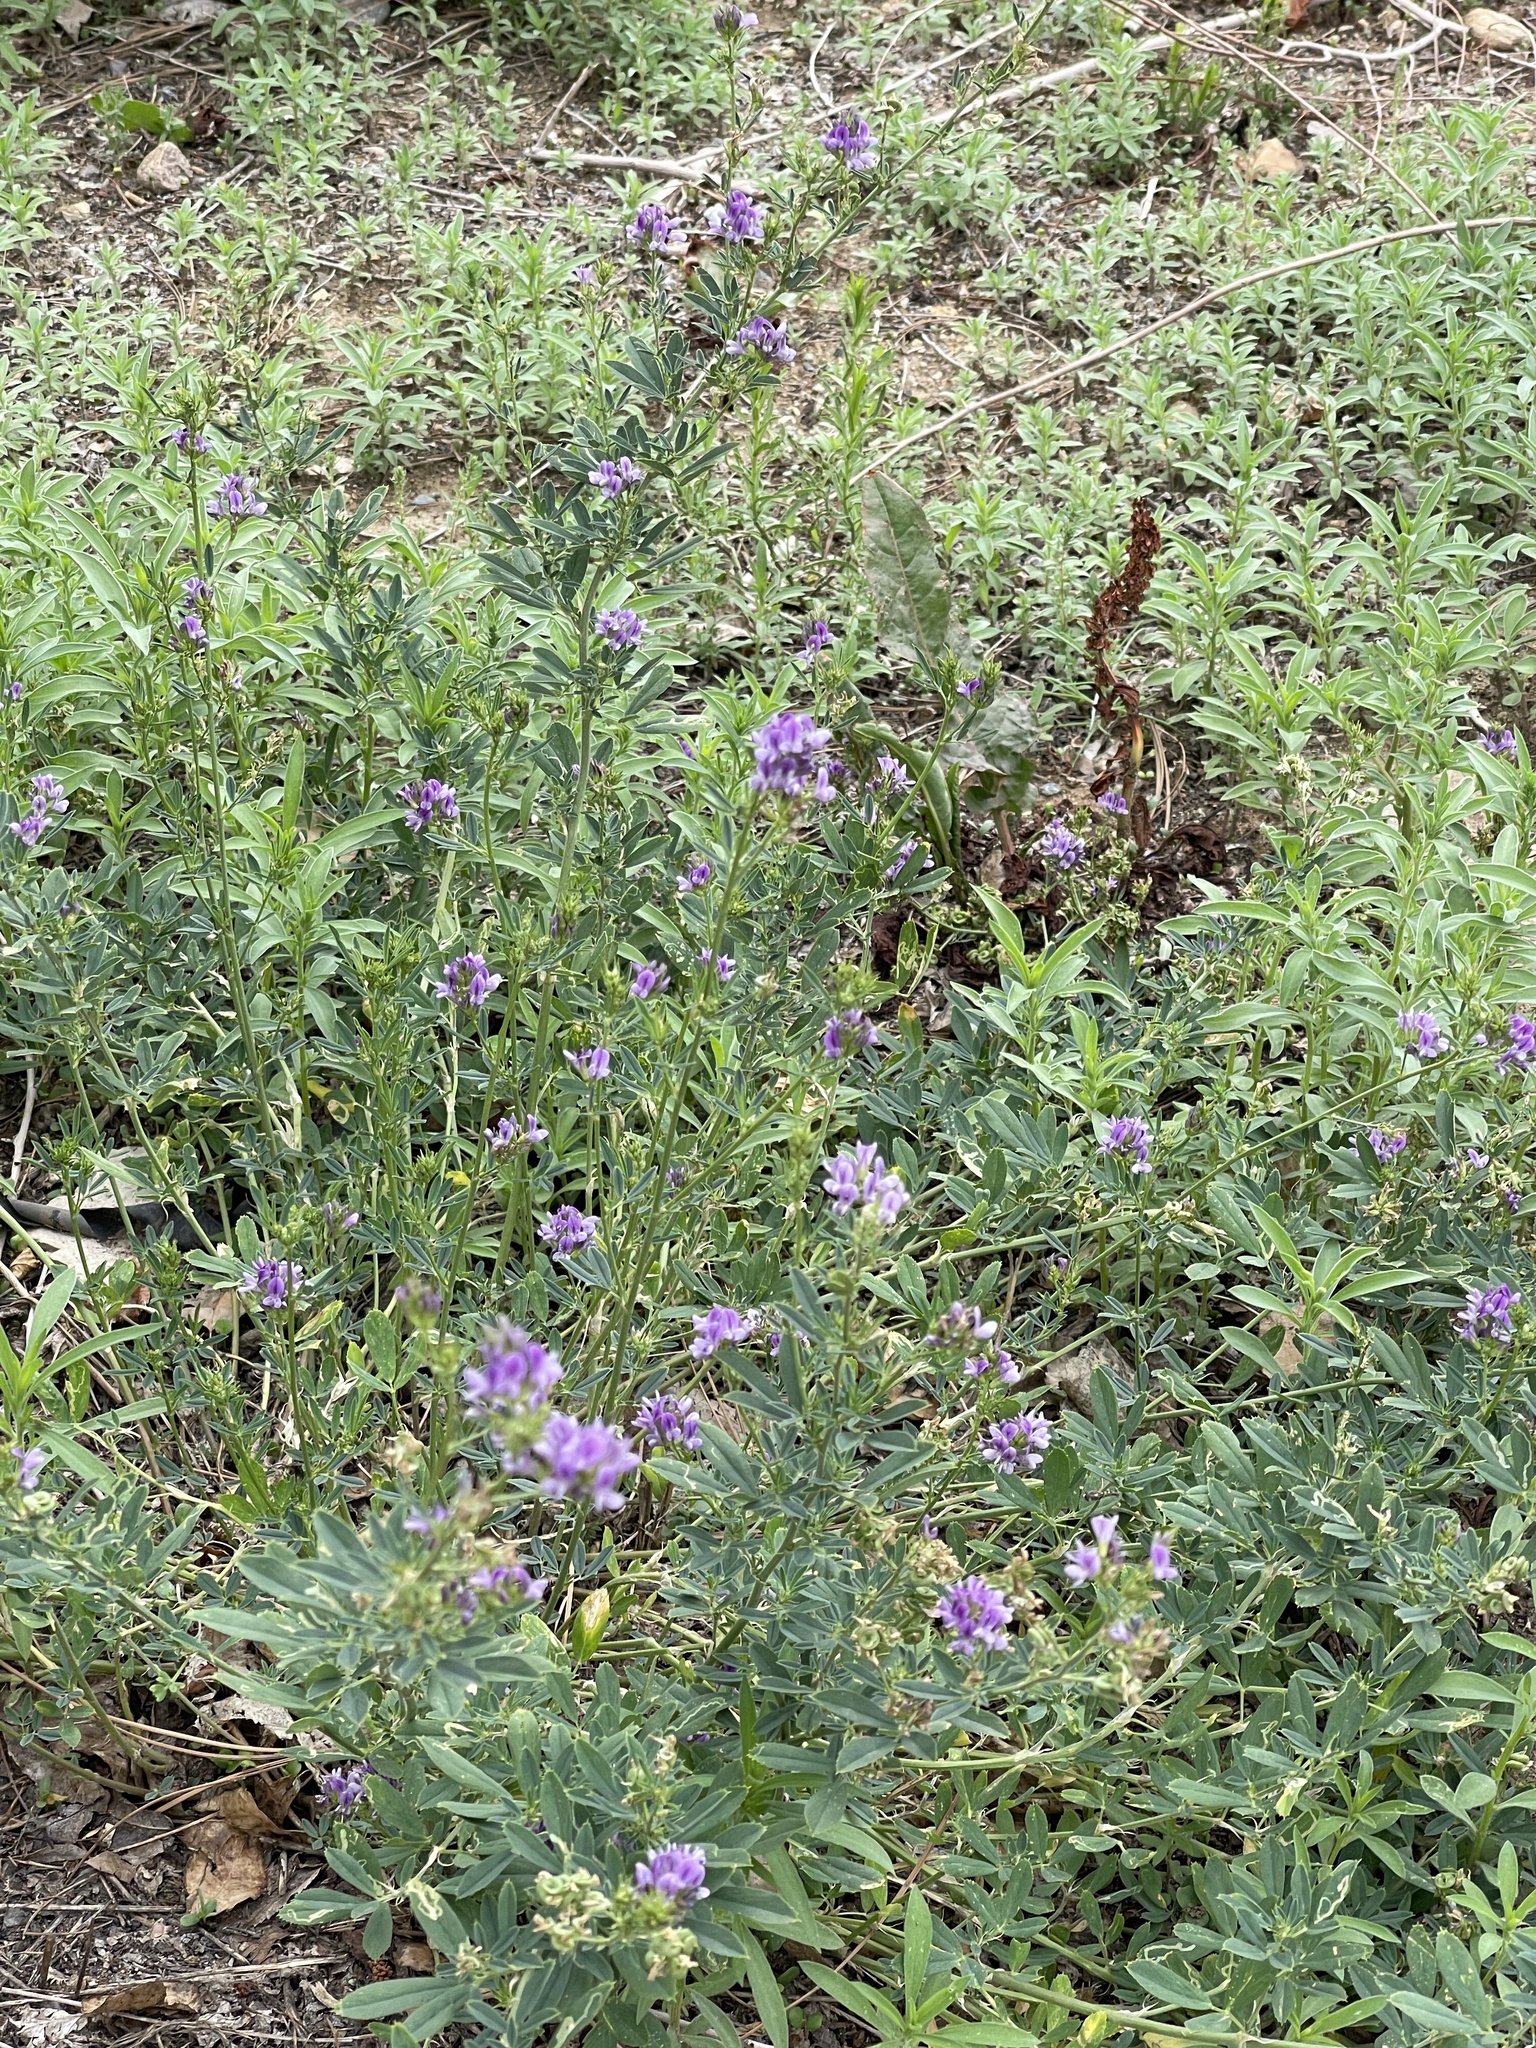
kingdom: Plantae
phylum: Tracheophyta
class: Magnoliopsida
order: Fabales
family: Fabaceae
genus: Medicago
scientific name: Medicago sativa
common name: Alfalfa
